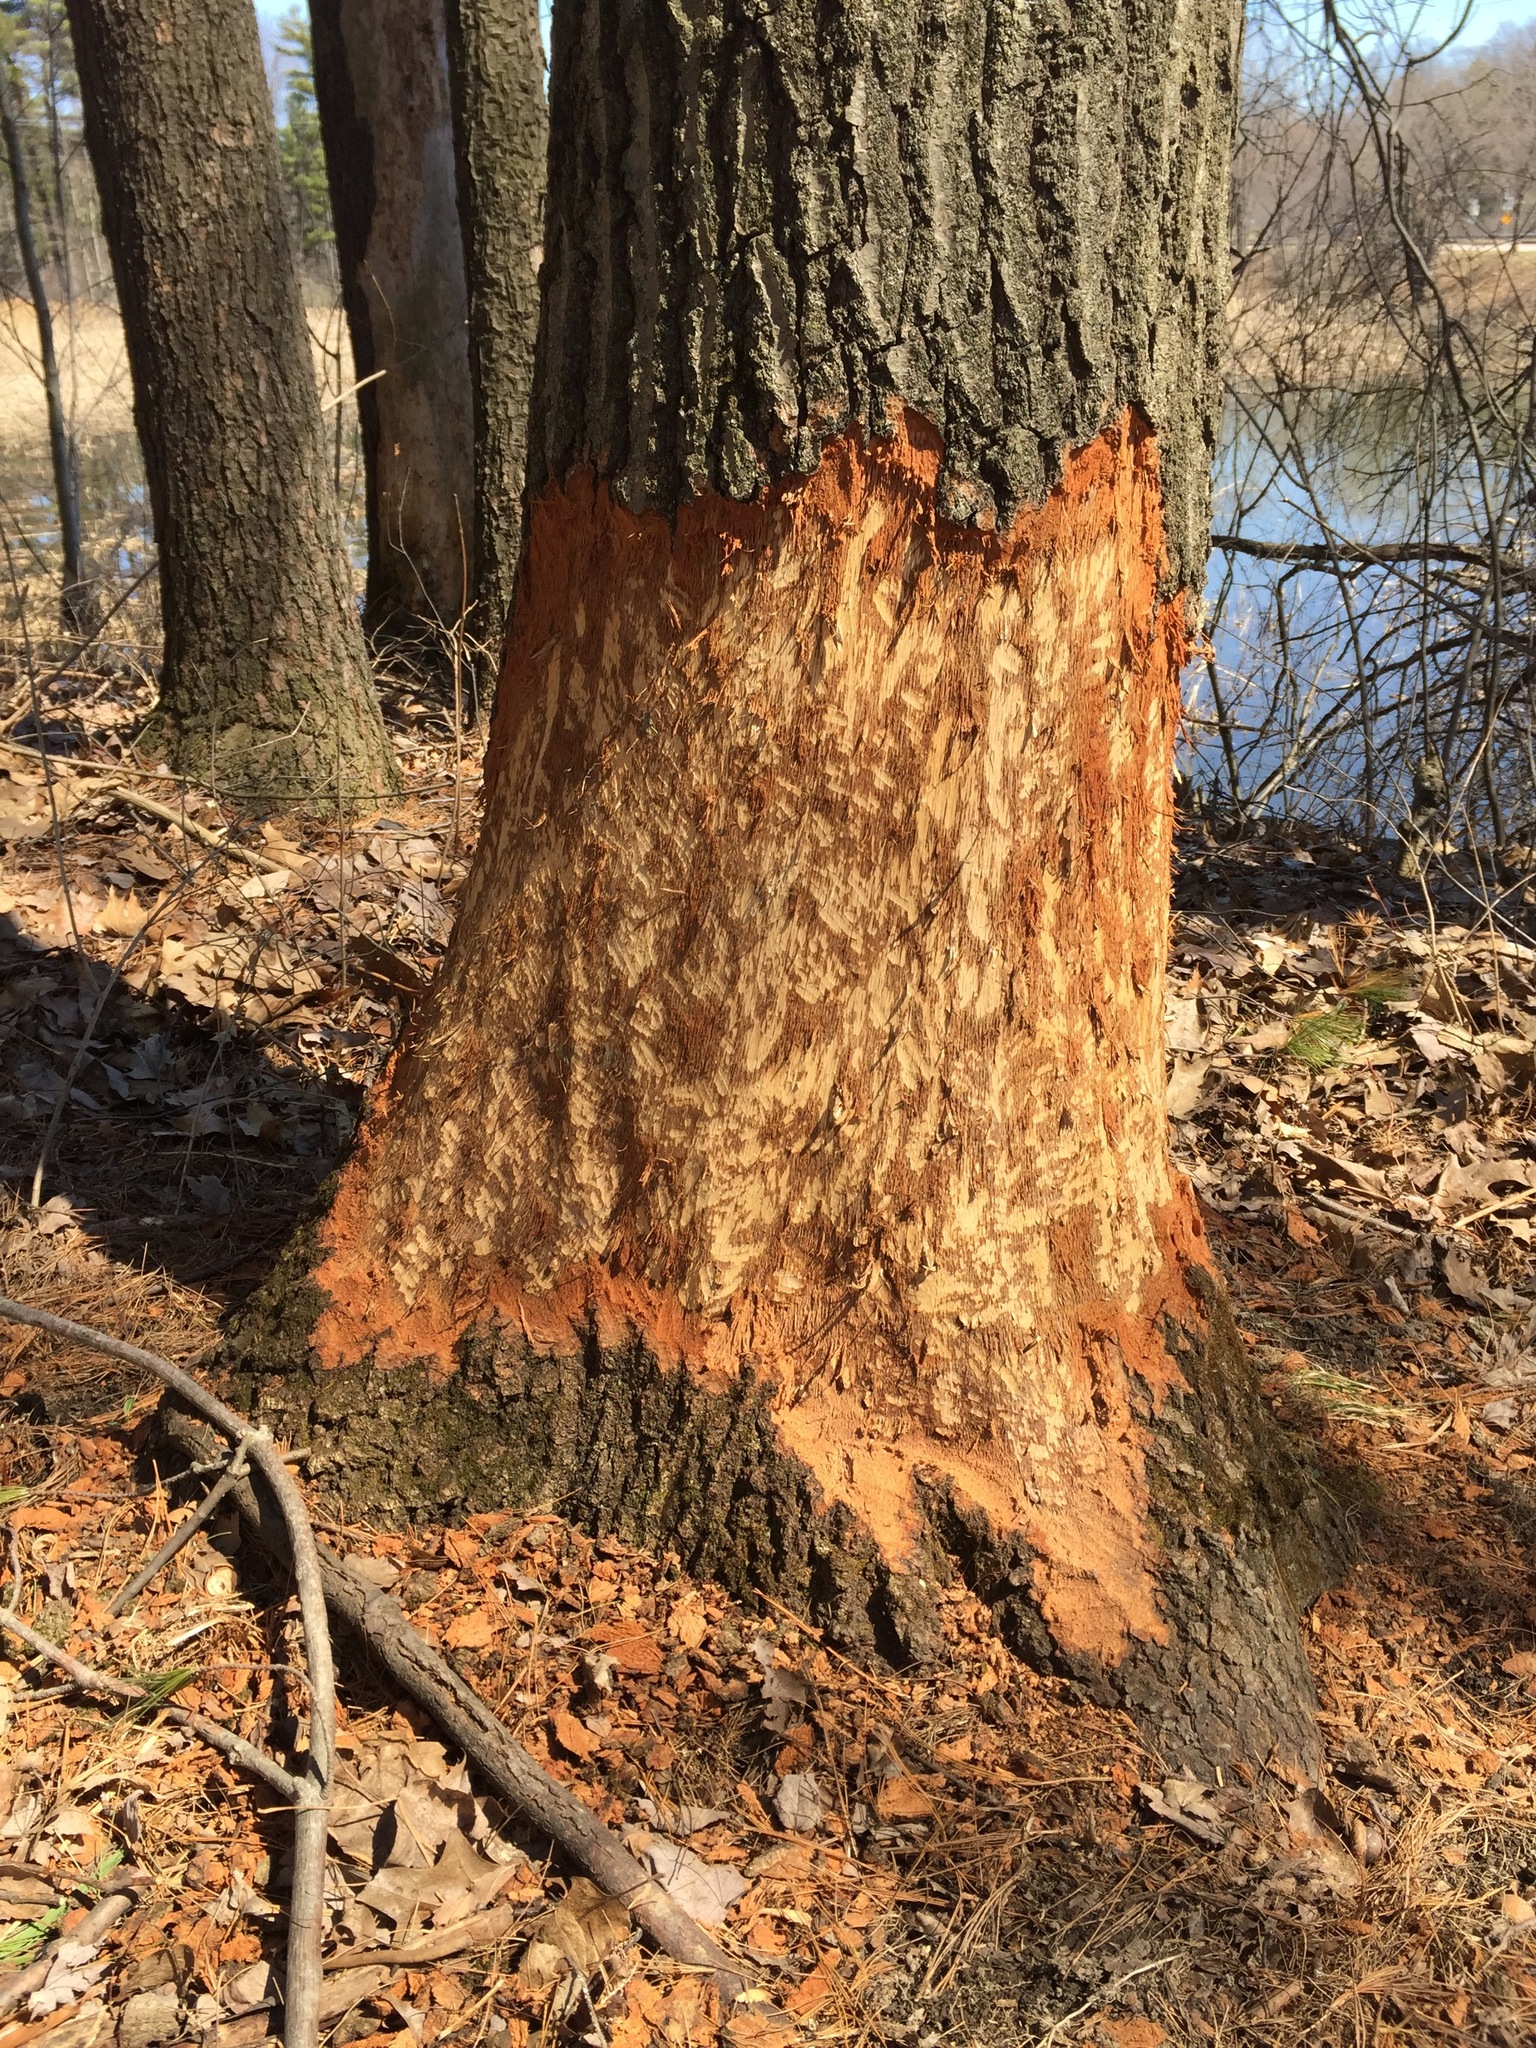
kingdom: Animalia
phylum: Chordata
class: Mammalia
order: Rodentia
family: Castoridae
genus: Castor
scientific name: Castor canadensis
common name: American beaver
